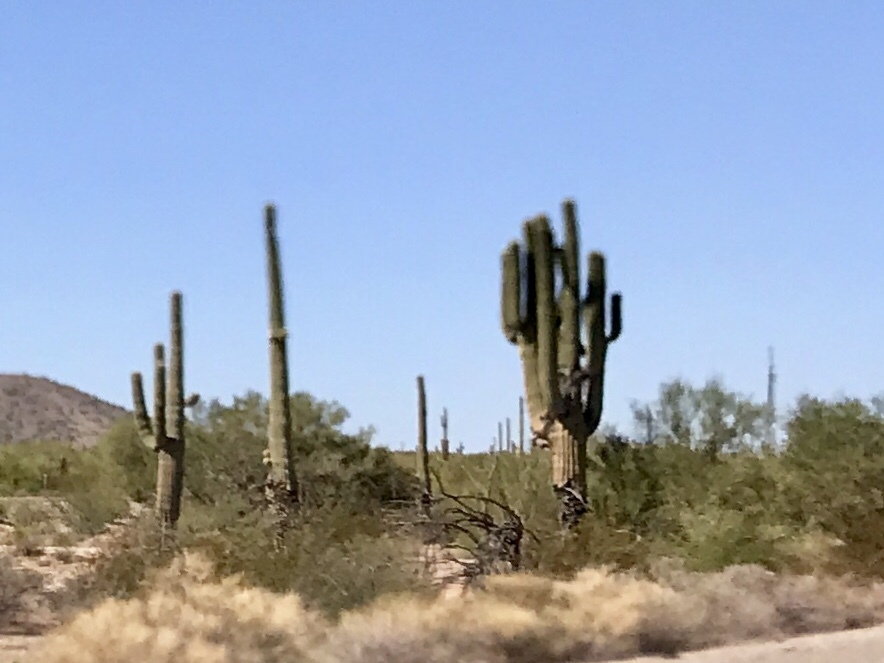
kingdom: Plantae
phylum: Tracheophyta
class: Magnoliopsida
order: Caryophyllales
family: Cactaceae
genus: Carnegiea
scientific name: Carnegiea gigantea
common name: Saguaro
